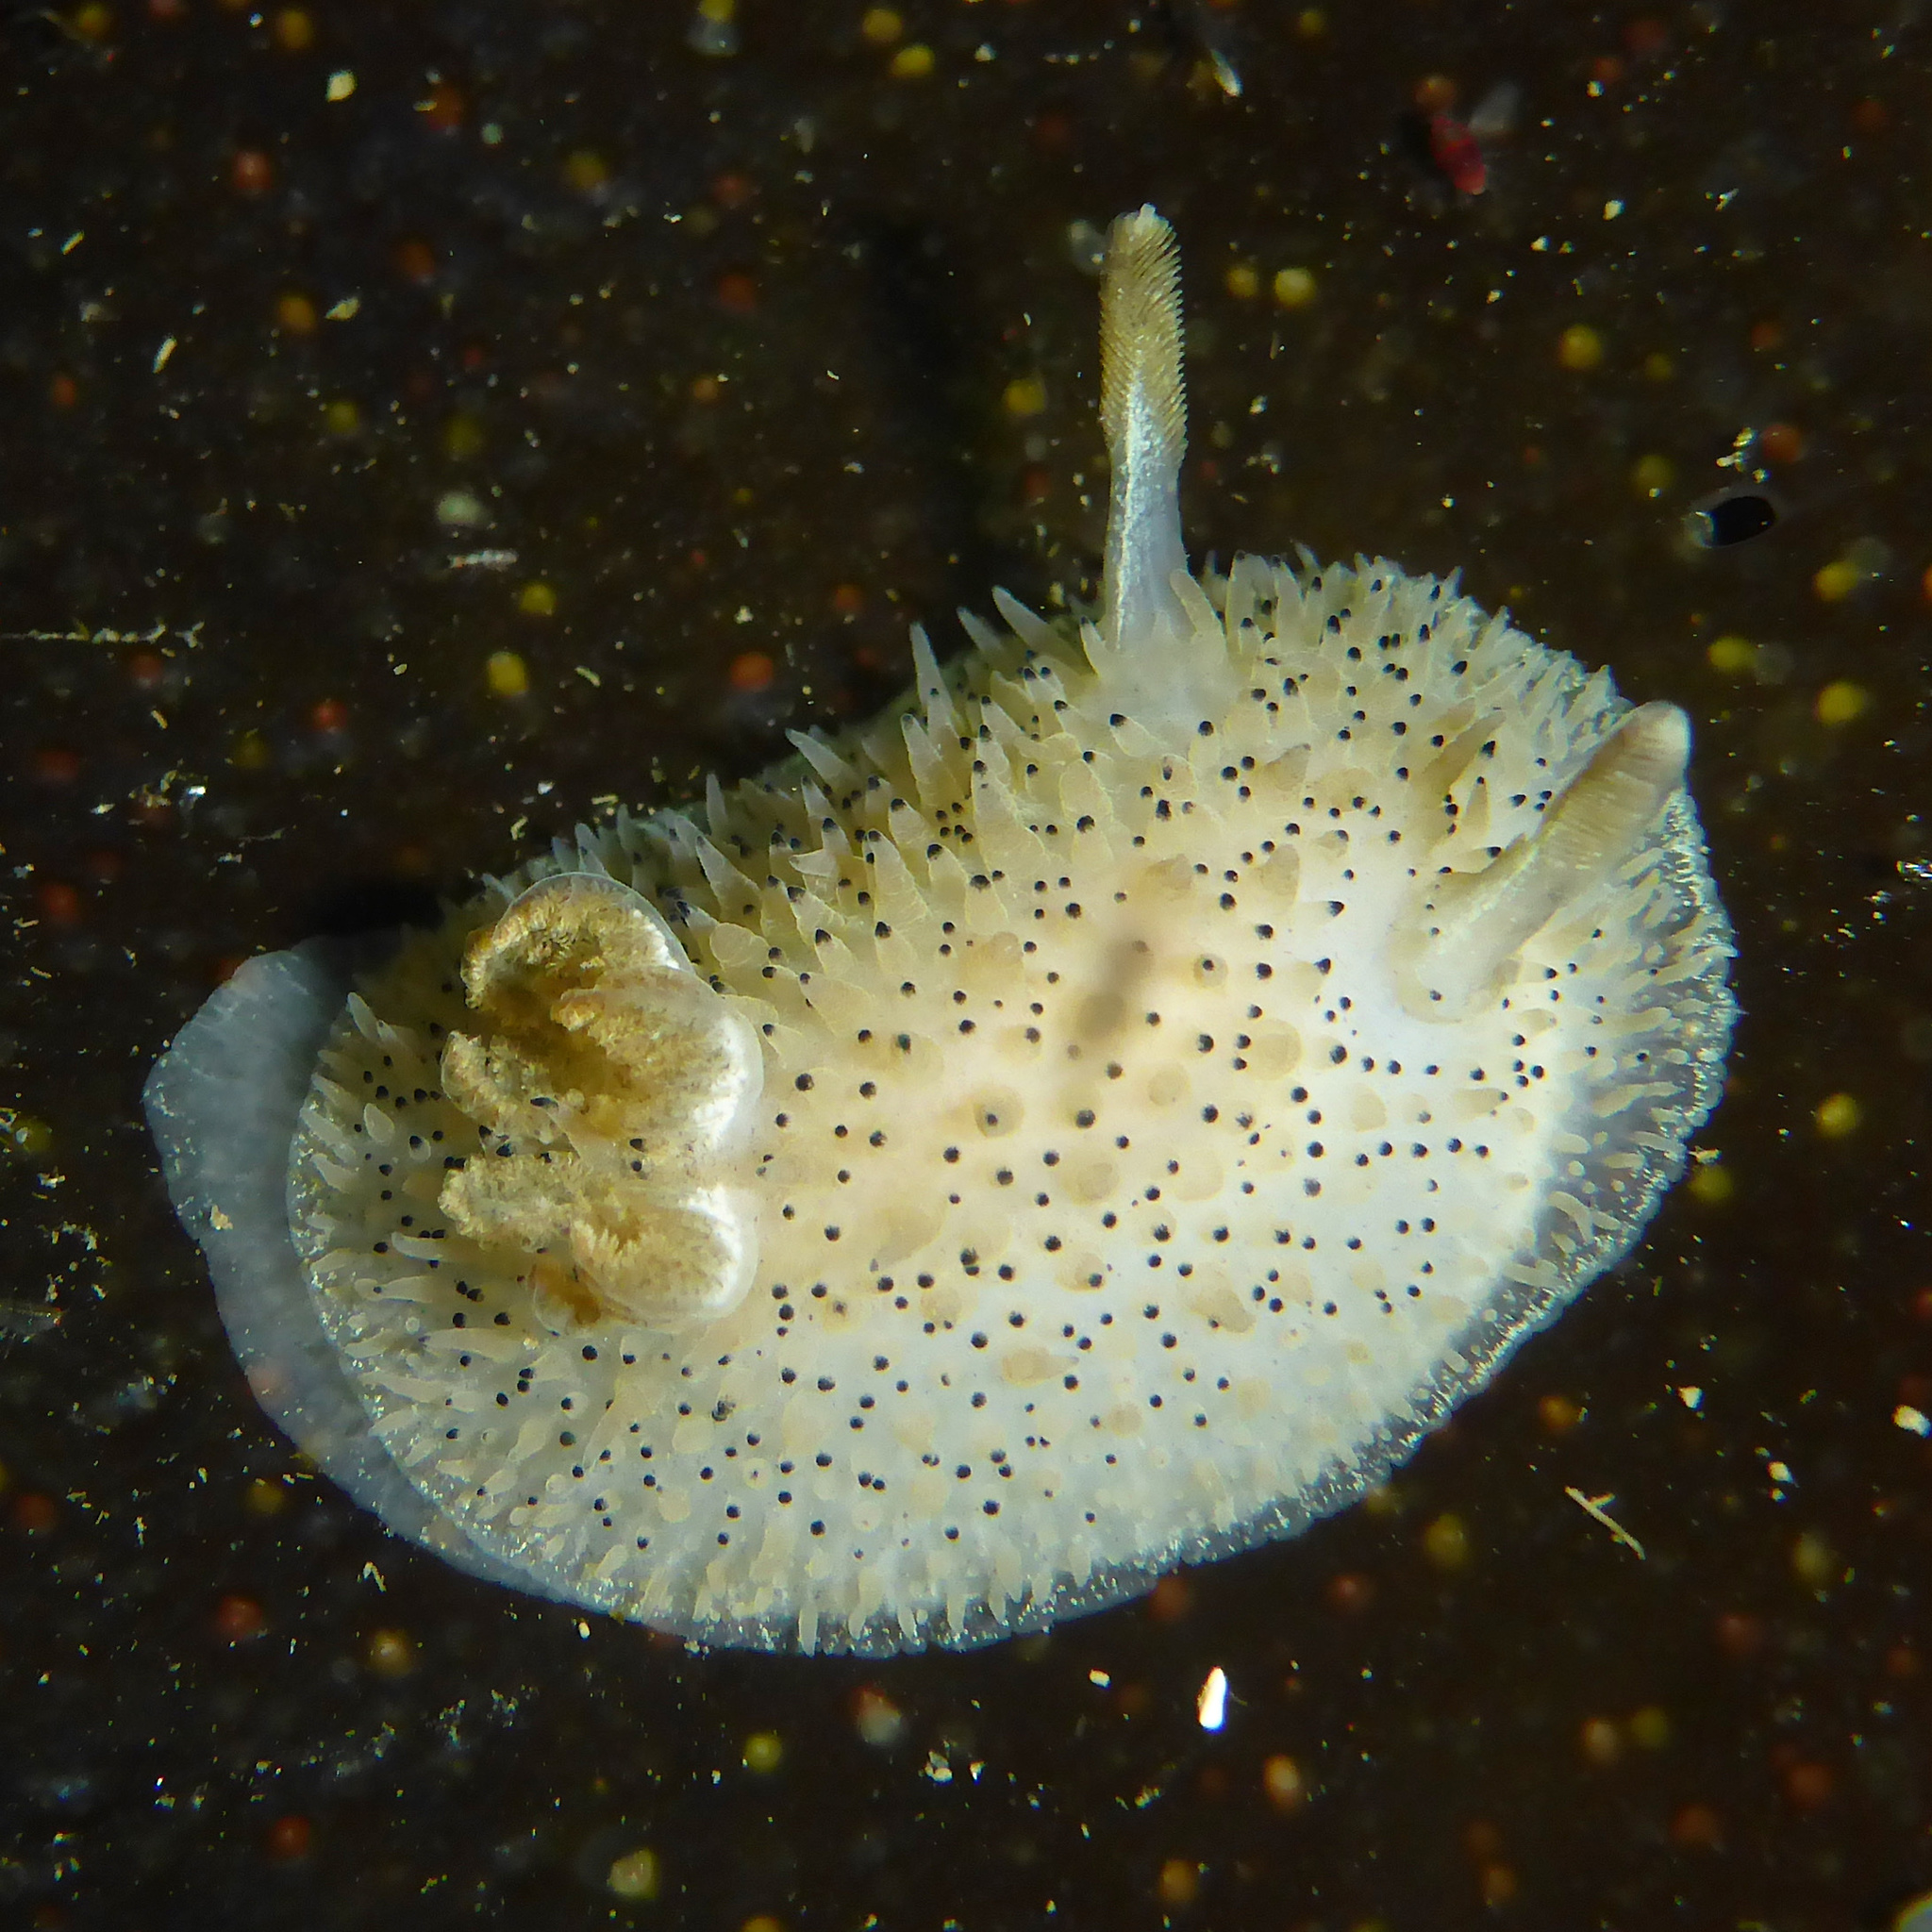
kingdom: Animalia
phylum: Mollusca
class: Gastropoda
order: Nudibranchia
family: Onchidorididae
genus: Acanthodoris
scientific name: Acanthodoris rhodoceras
